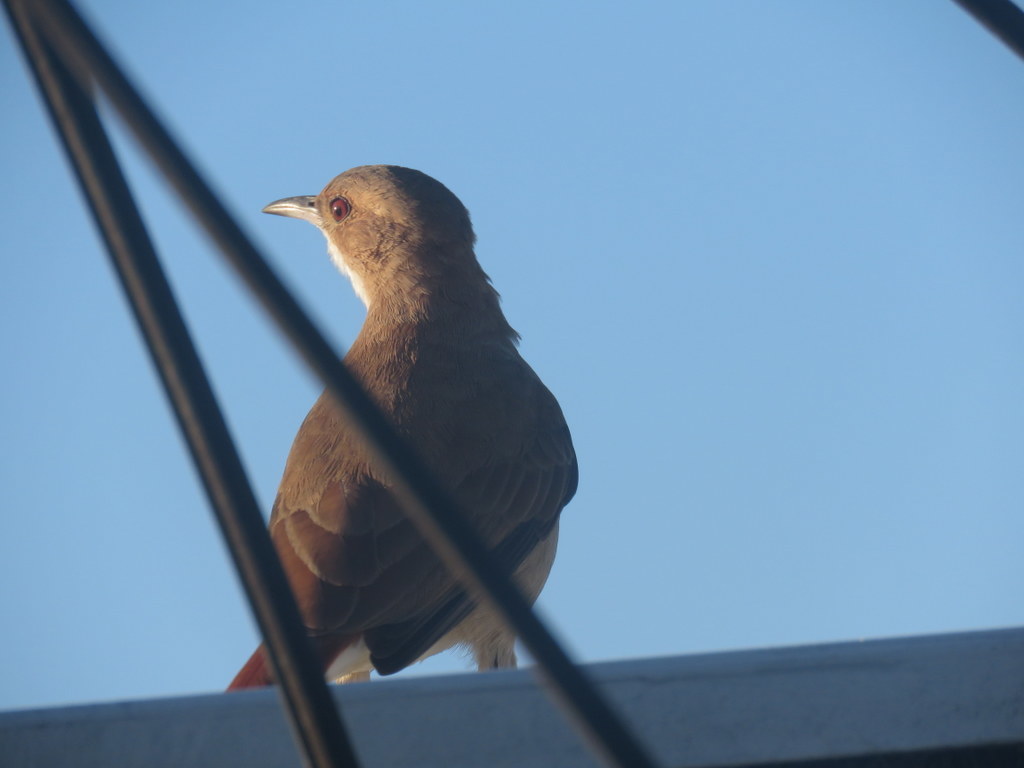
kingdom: Animalia
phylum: Chordata
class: Aves
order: Passeriformes
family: Furnariidae
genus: Furnarius
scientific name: Furnarius rufus
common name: Rufous hornero
